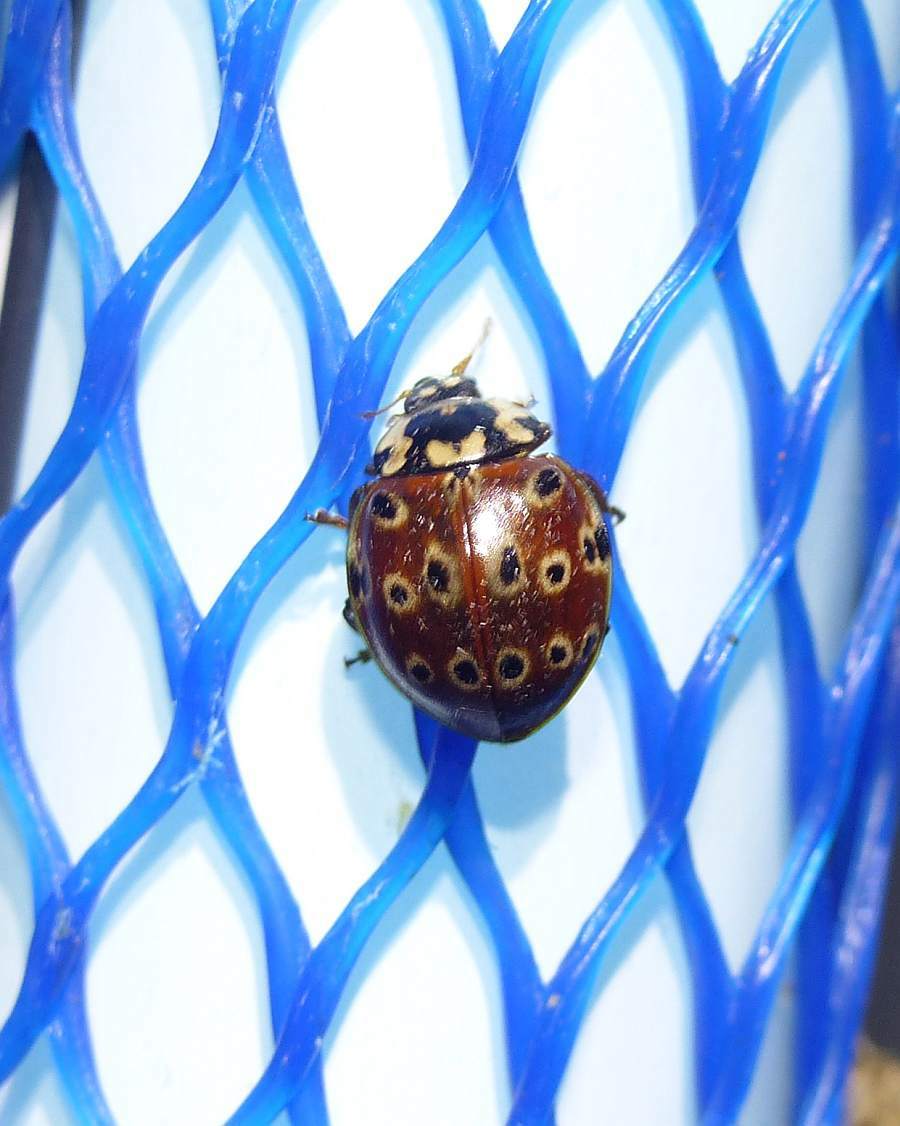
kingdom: Animalia
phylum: Arthropoda
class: Insecta
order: Coleoptera
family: Coccinellidae
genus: Anatis
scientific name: Anatis mali
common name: Eye-spotted lady beetle
